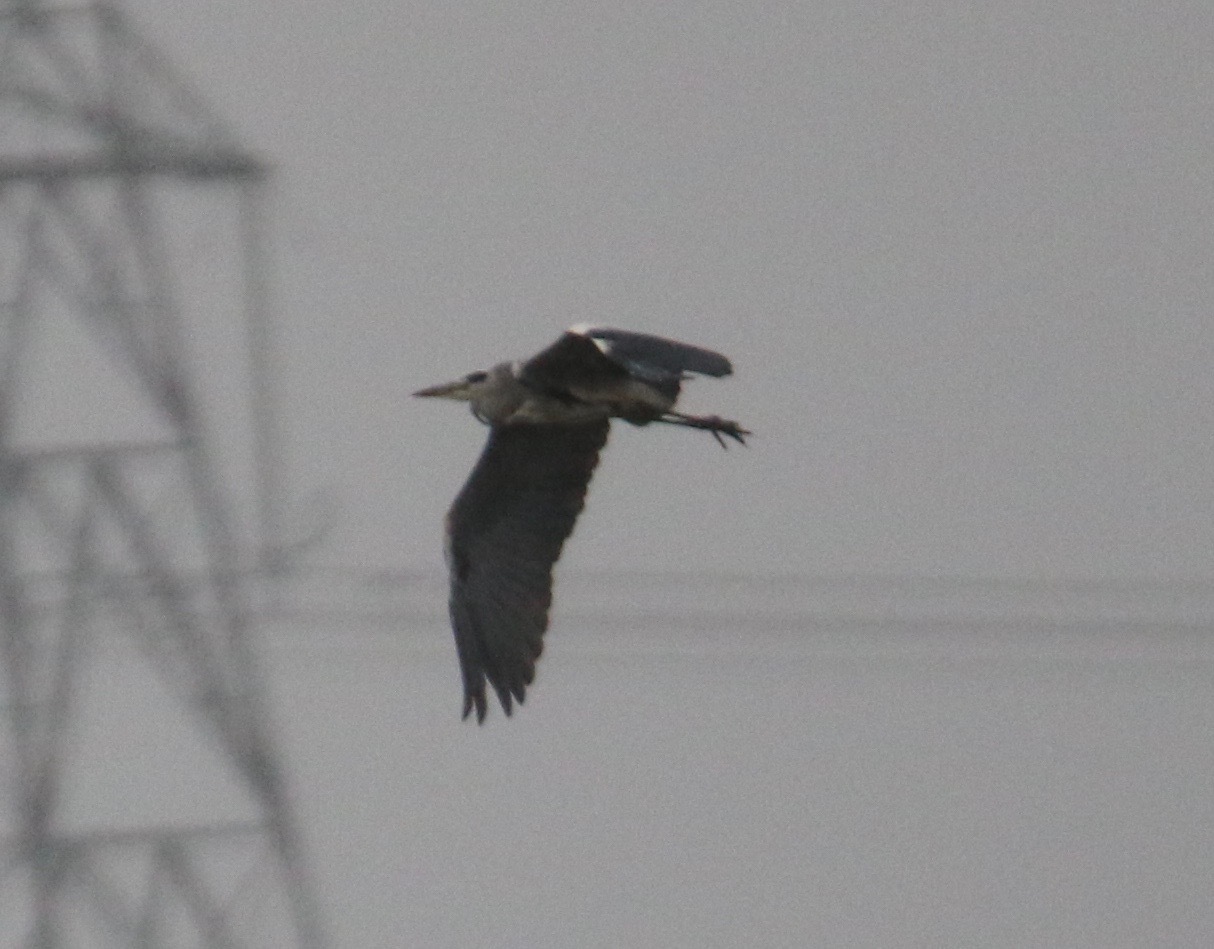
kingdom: Animalia
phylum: Chordata
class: Aves
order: Pelecaniformes
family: Ardeidae
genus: Ardea
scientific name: Ardea cinerea
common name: Grey heron
